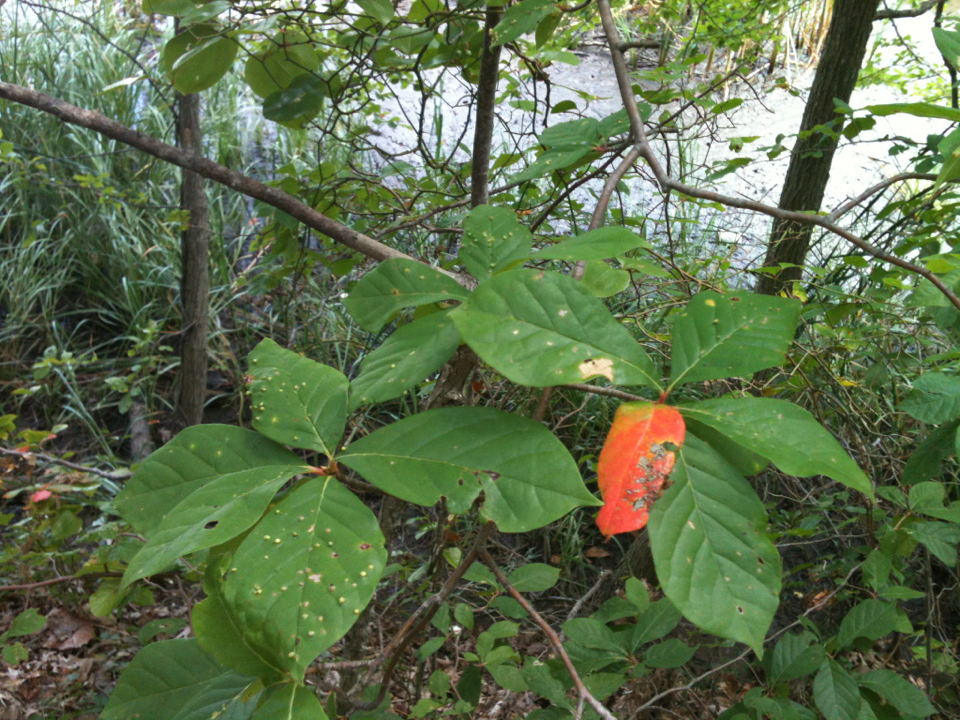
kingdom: Plantae
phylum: Tracheophyta
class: Magnoliopsida
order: Cornales
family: Nyssaceae
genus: Nyssa
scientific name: Nyssa sylvatica
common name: Black tupelo
